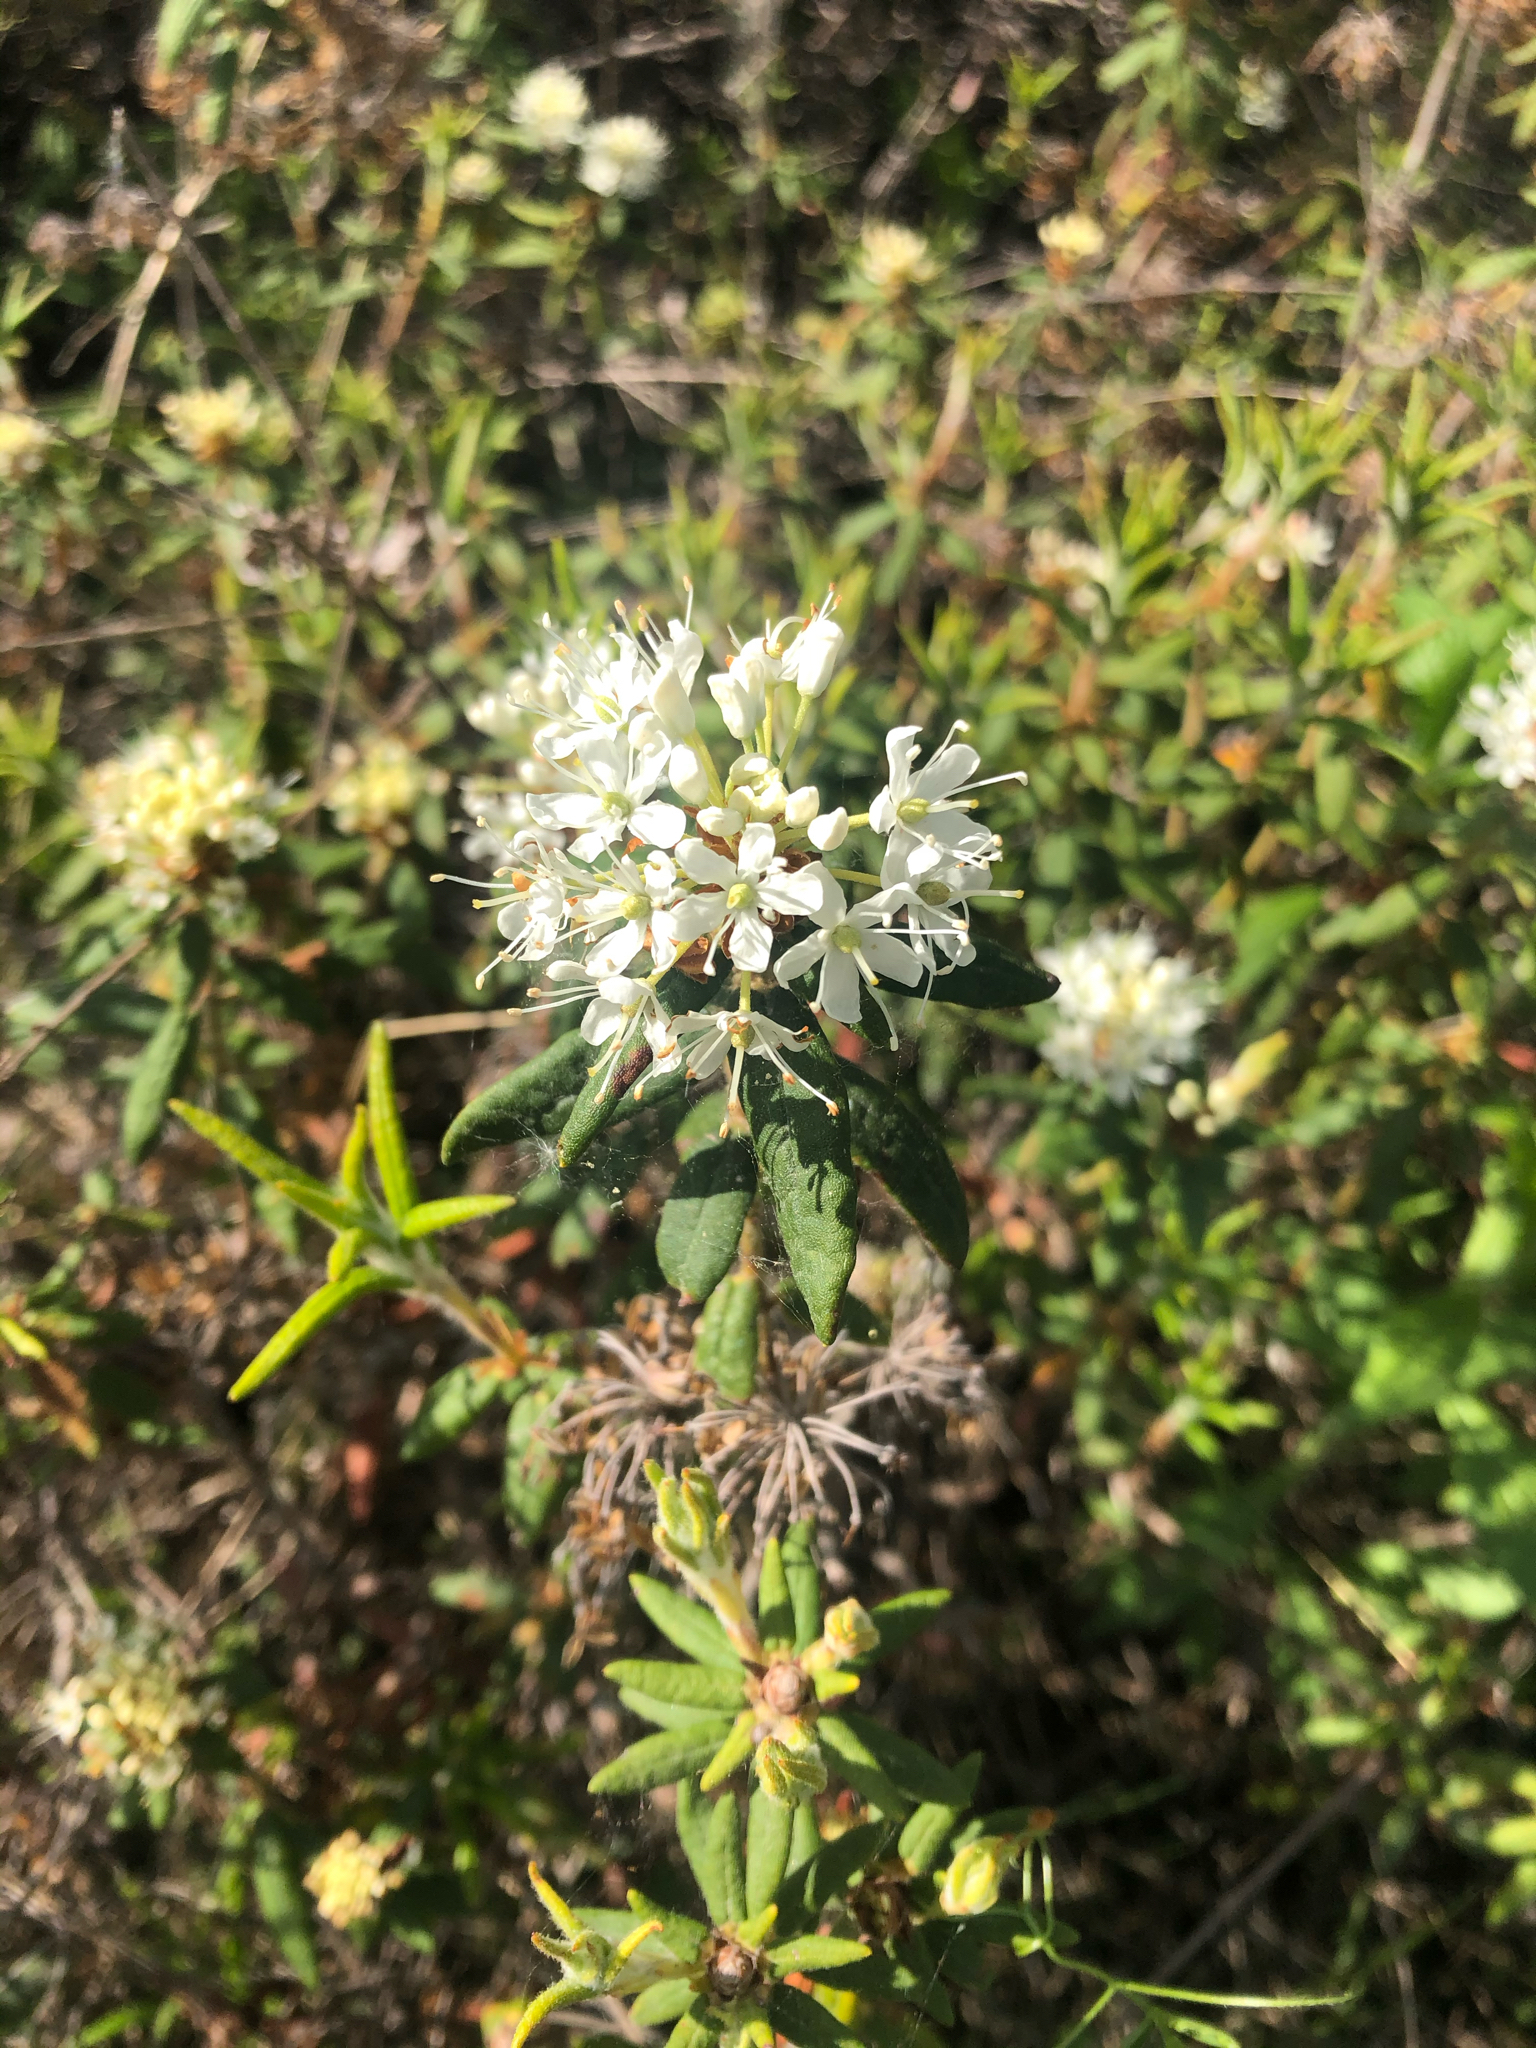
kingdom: Plantae
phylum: Tracheophyta
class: Magnoliopsida
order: Ericales
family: Ericaceae
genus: Rhododendron
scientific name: Rhododendron groenlandicum
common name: Bog labrador tea
